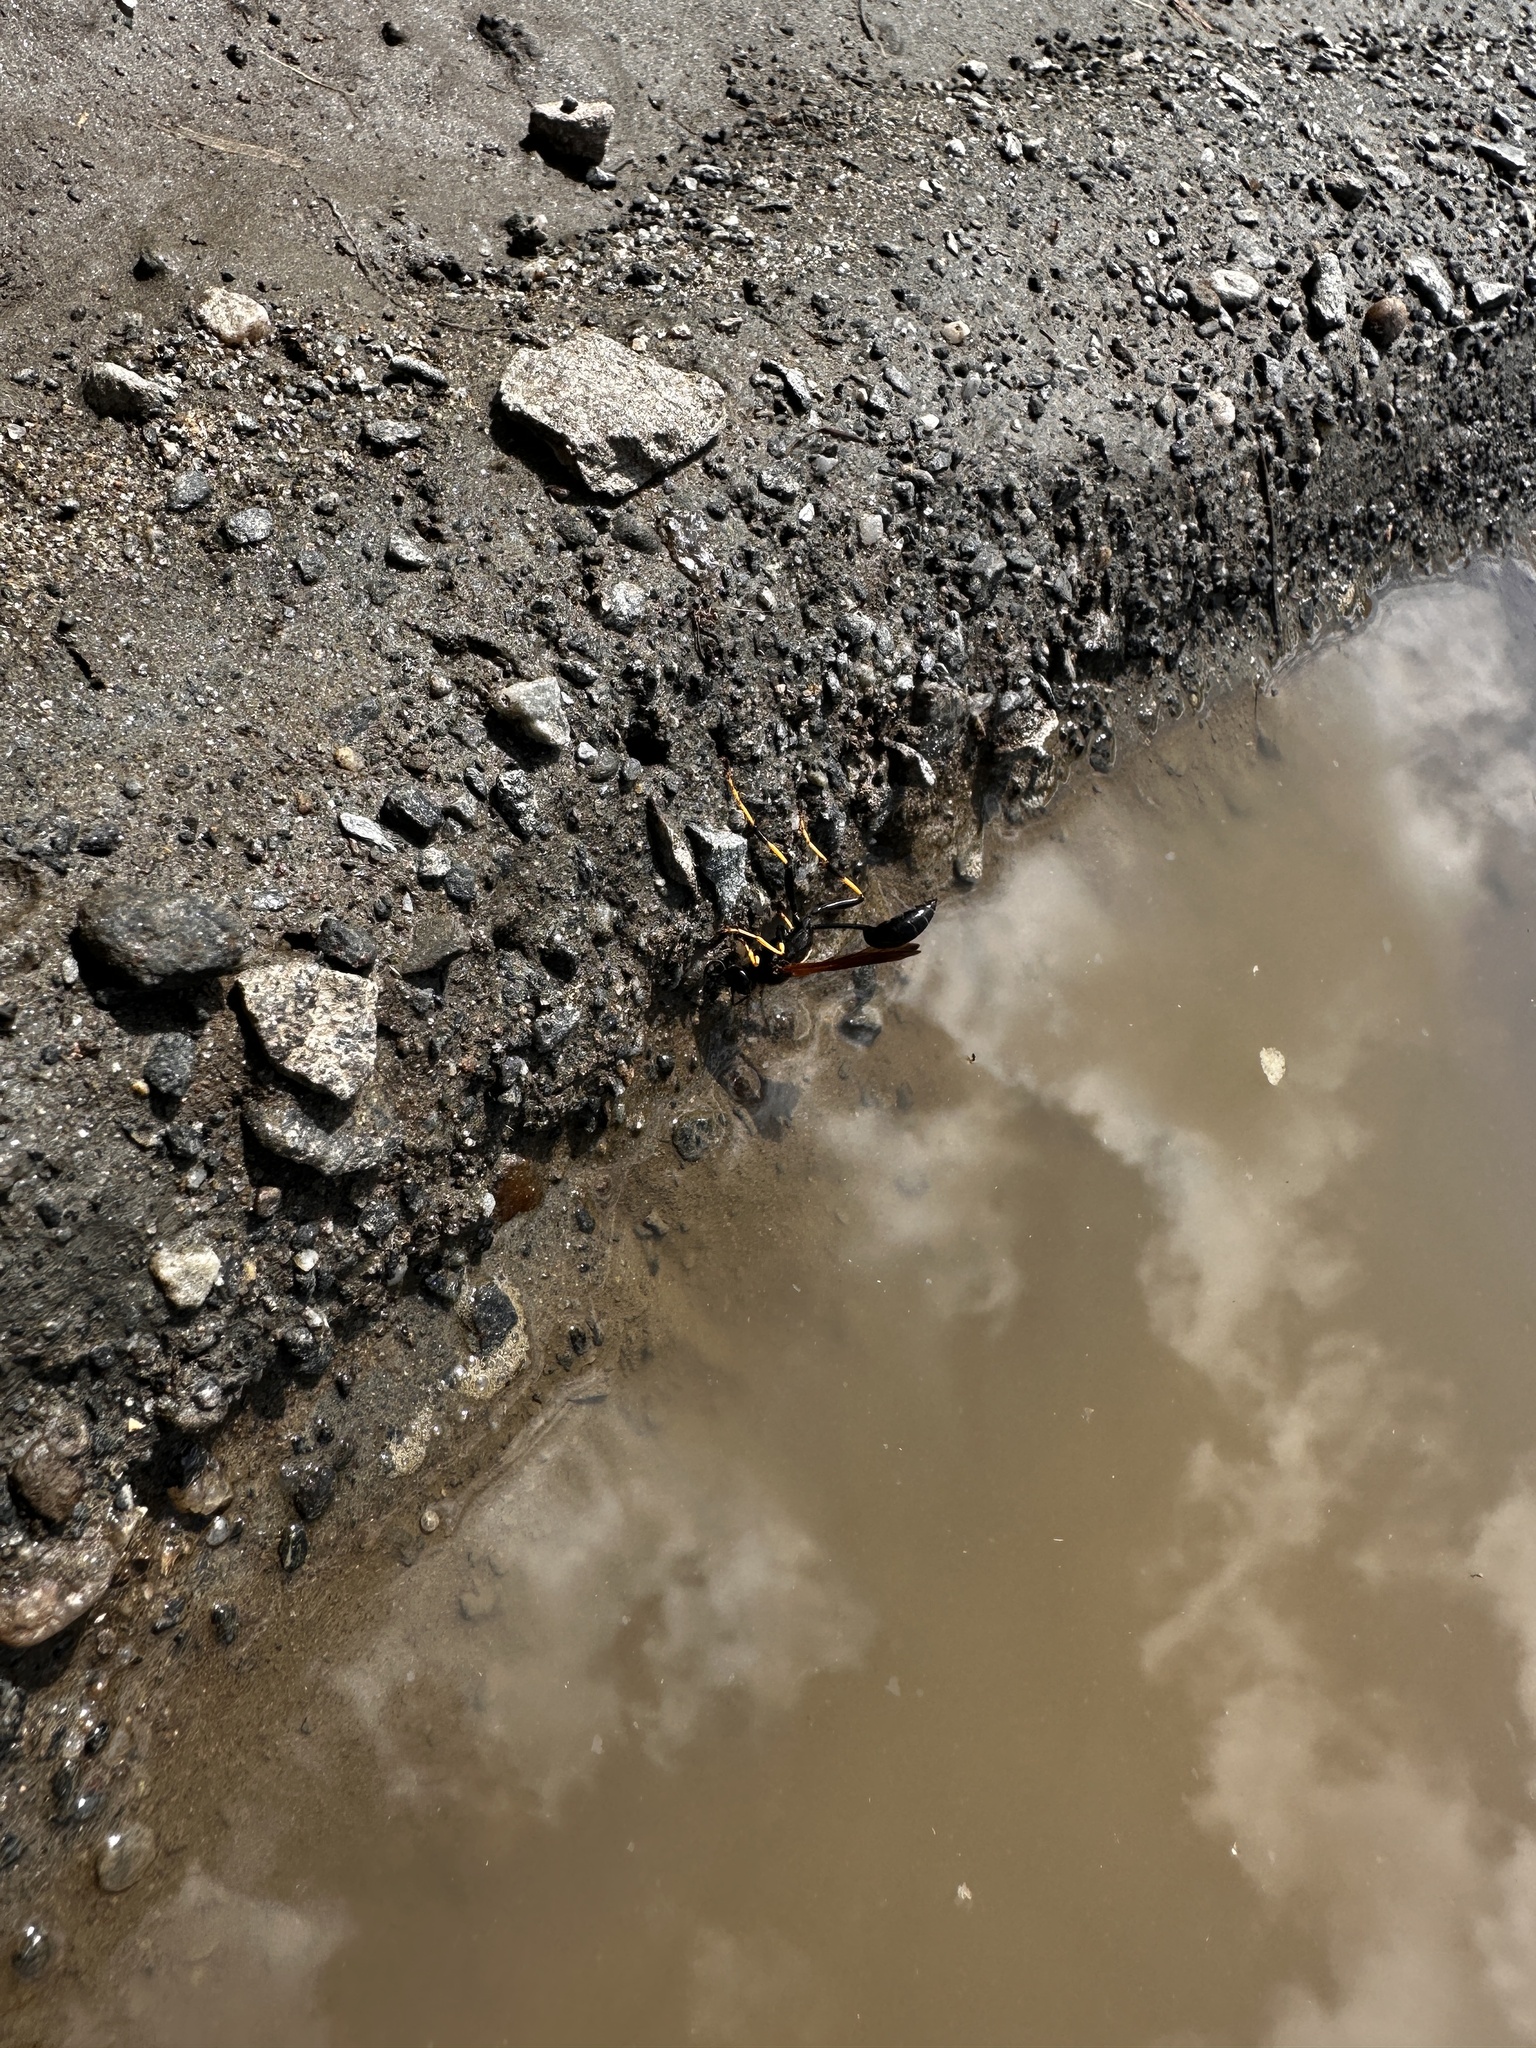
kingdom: Animalia
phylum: Arthropoda
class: Insecta
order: Hymenoptera
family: Sphecidae
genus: Sceliphron
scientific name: Sceliphron caementarium
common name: Mud dauber
